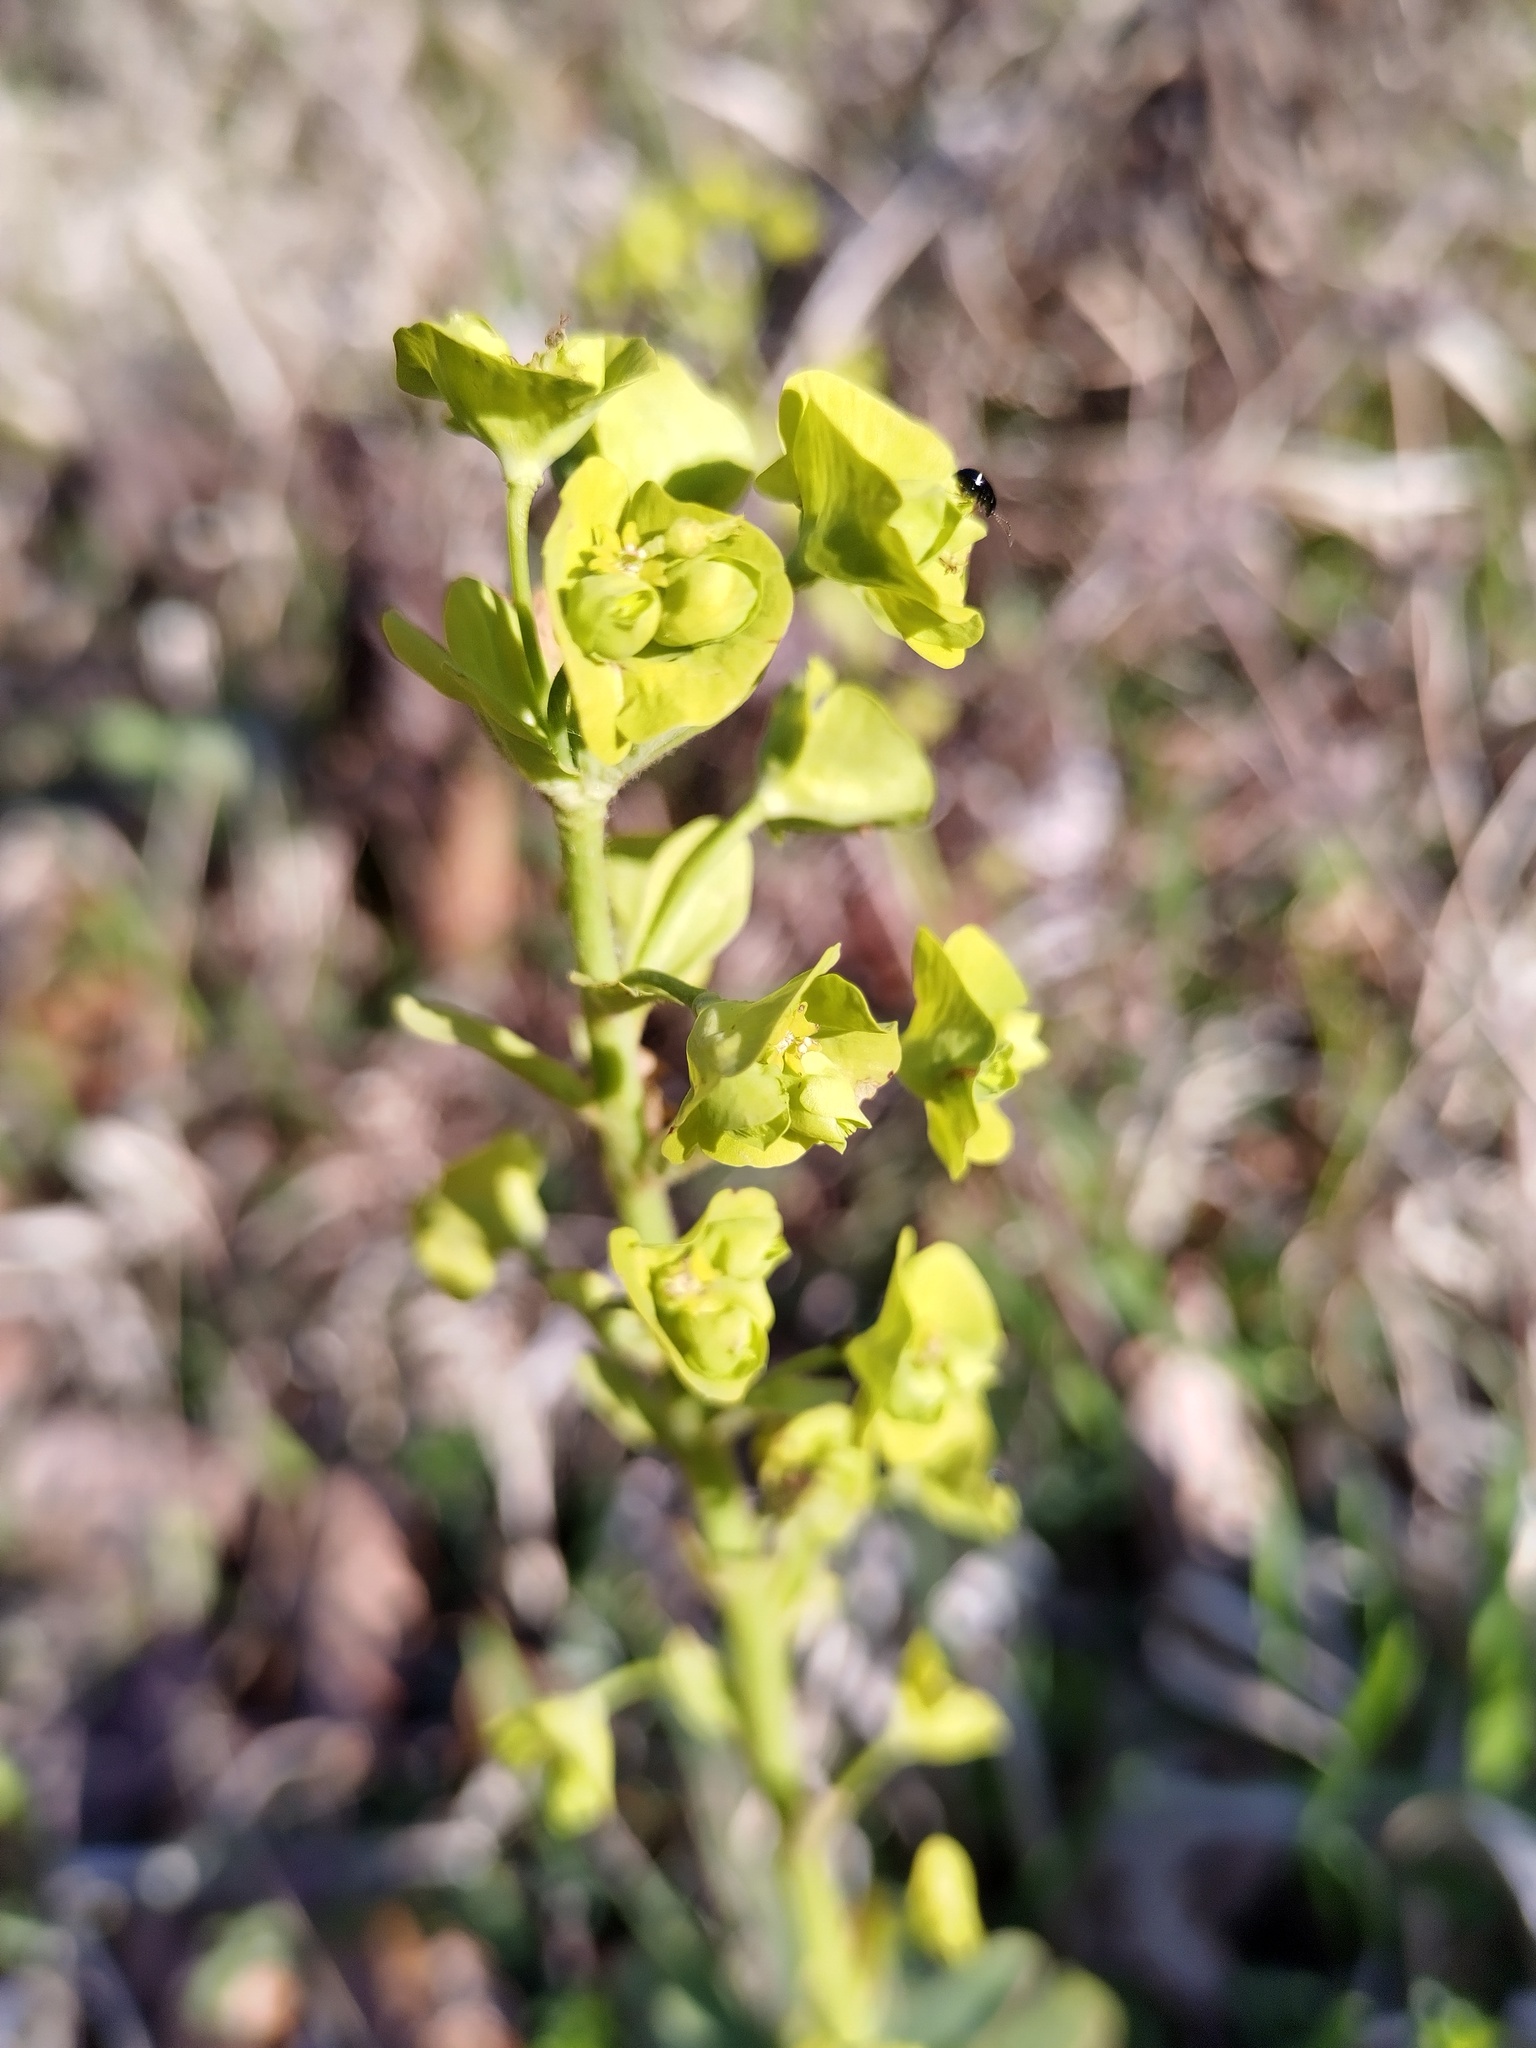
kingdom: Plantae
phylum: Tracheophyta
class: Magnoliopsida
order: Malpighiales
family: Euphorbiaceae
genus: Euphorbia
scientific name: Euphorbia amygdaloides
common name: Wood spurge
